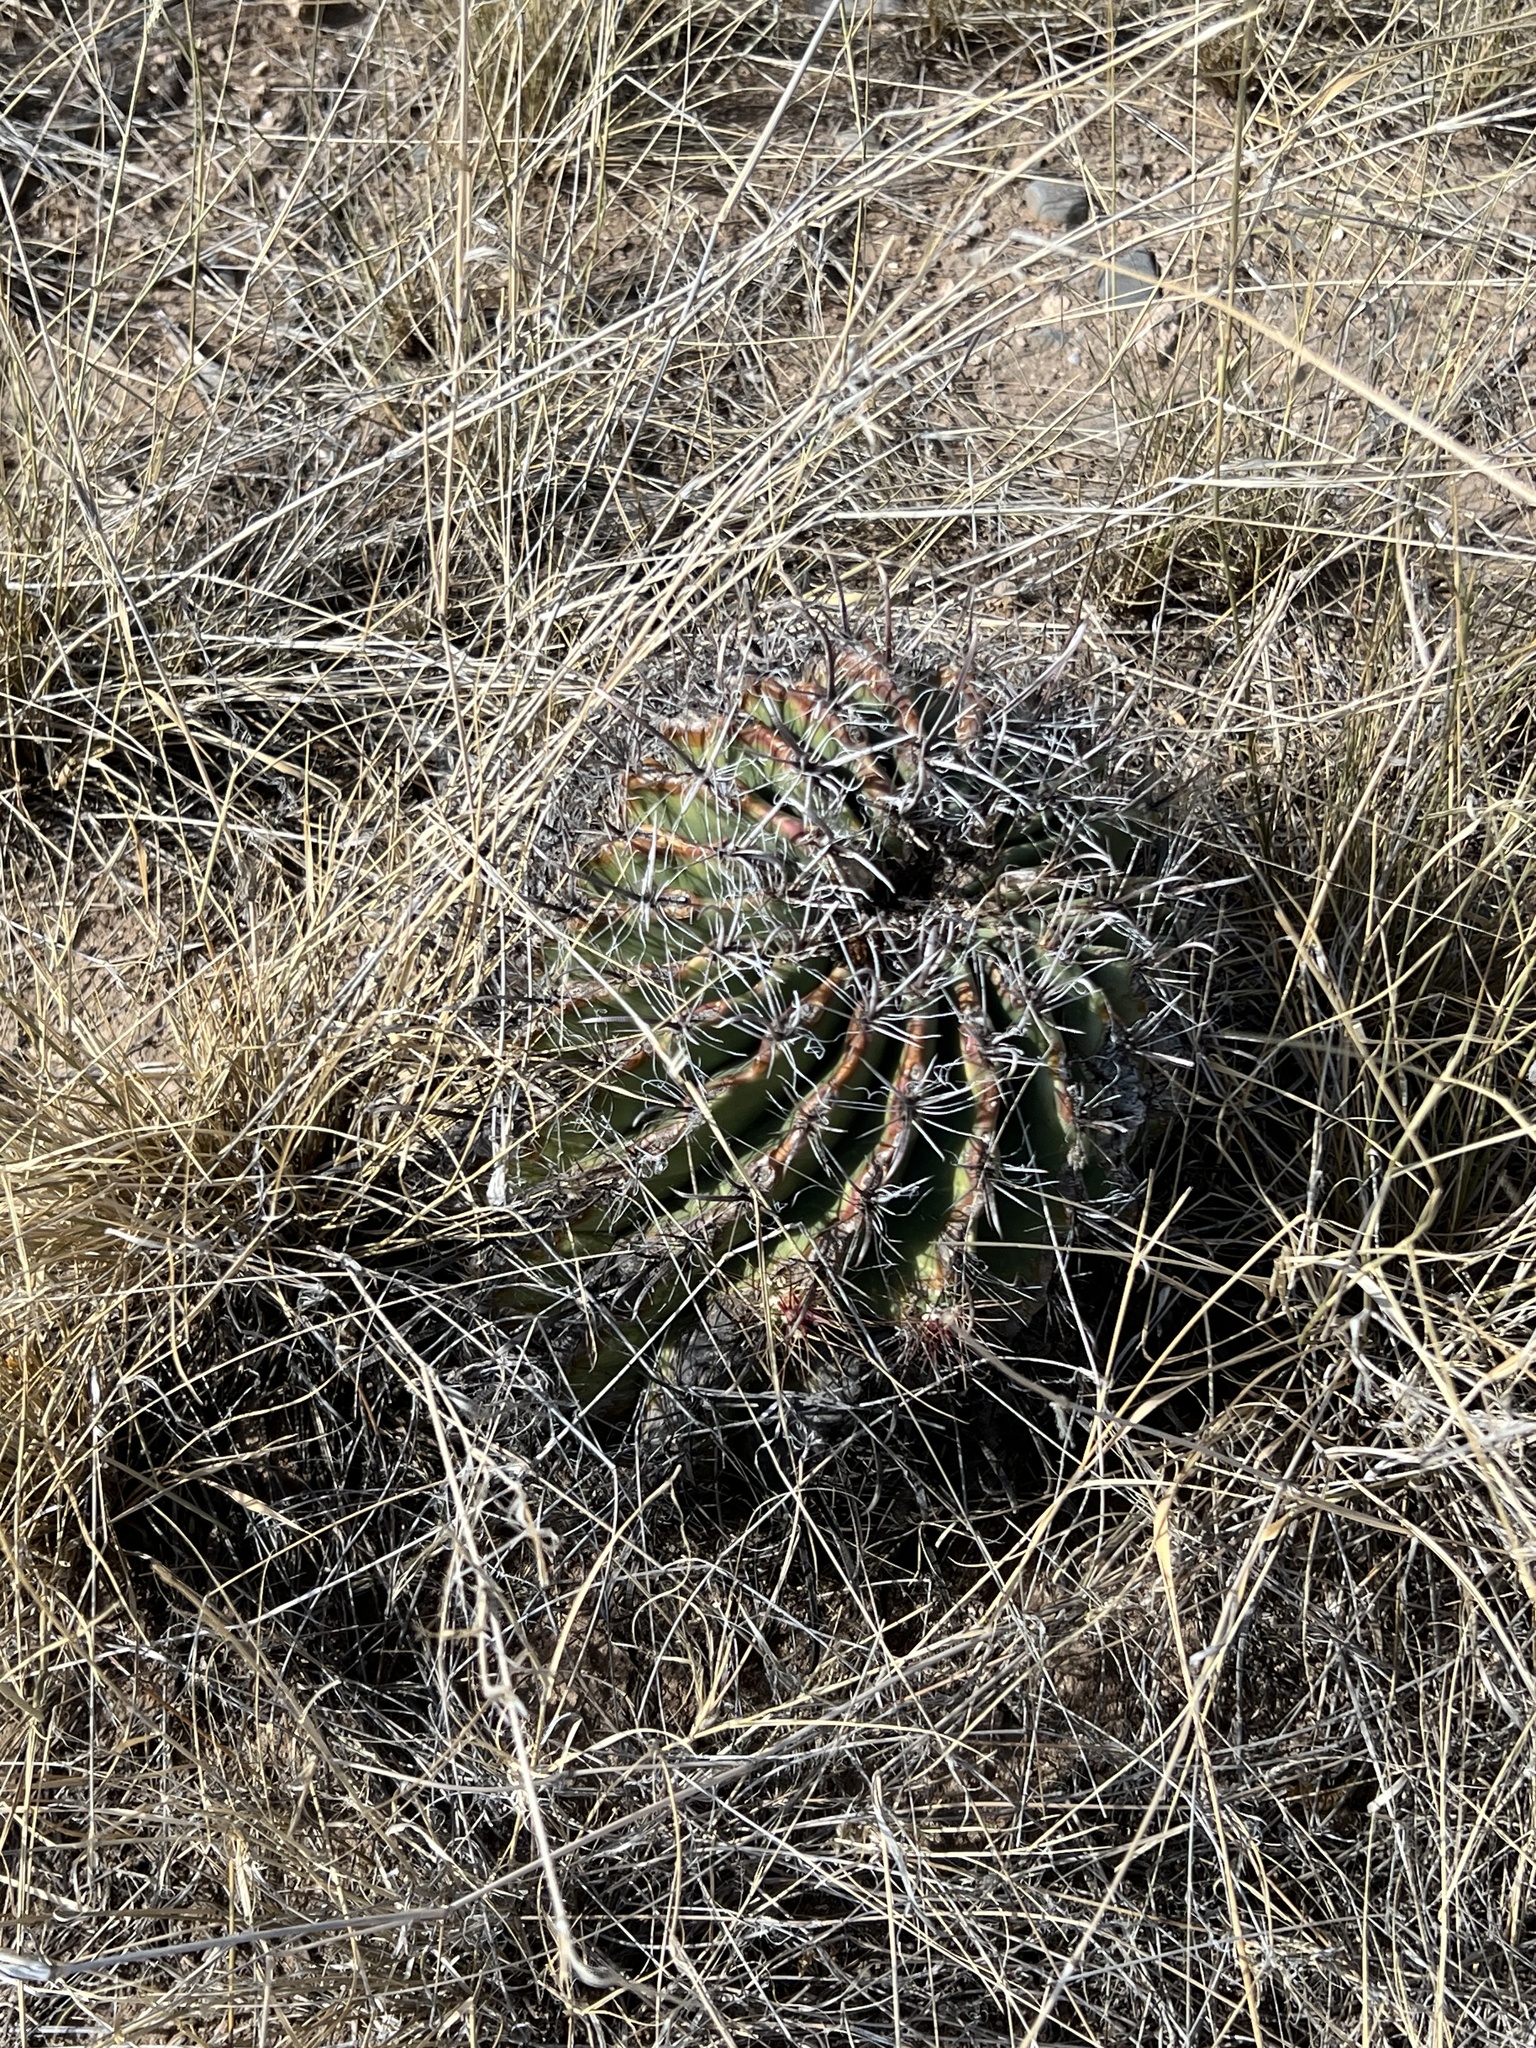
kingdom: Plantae
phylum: Tracheophyta
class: Magnoliopsida
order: Caryophyllales
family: Cactaceae
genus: Ferocactus
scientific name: Ferocactus wislizeni
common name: Candy barrel cactus
